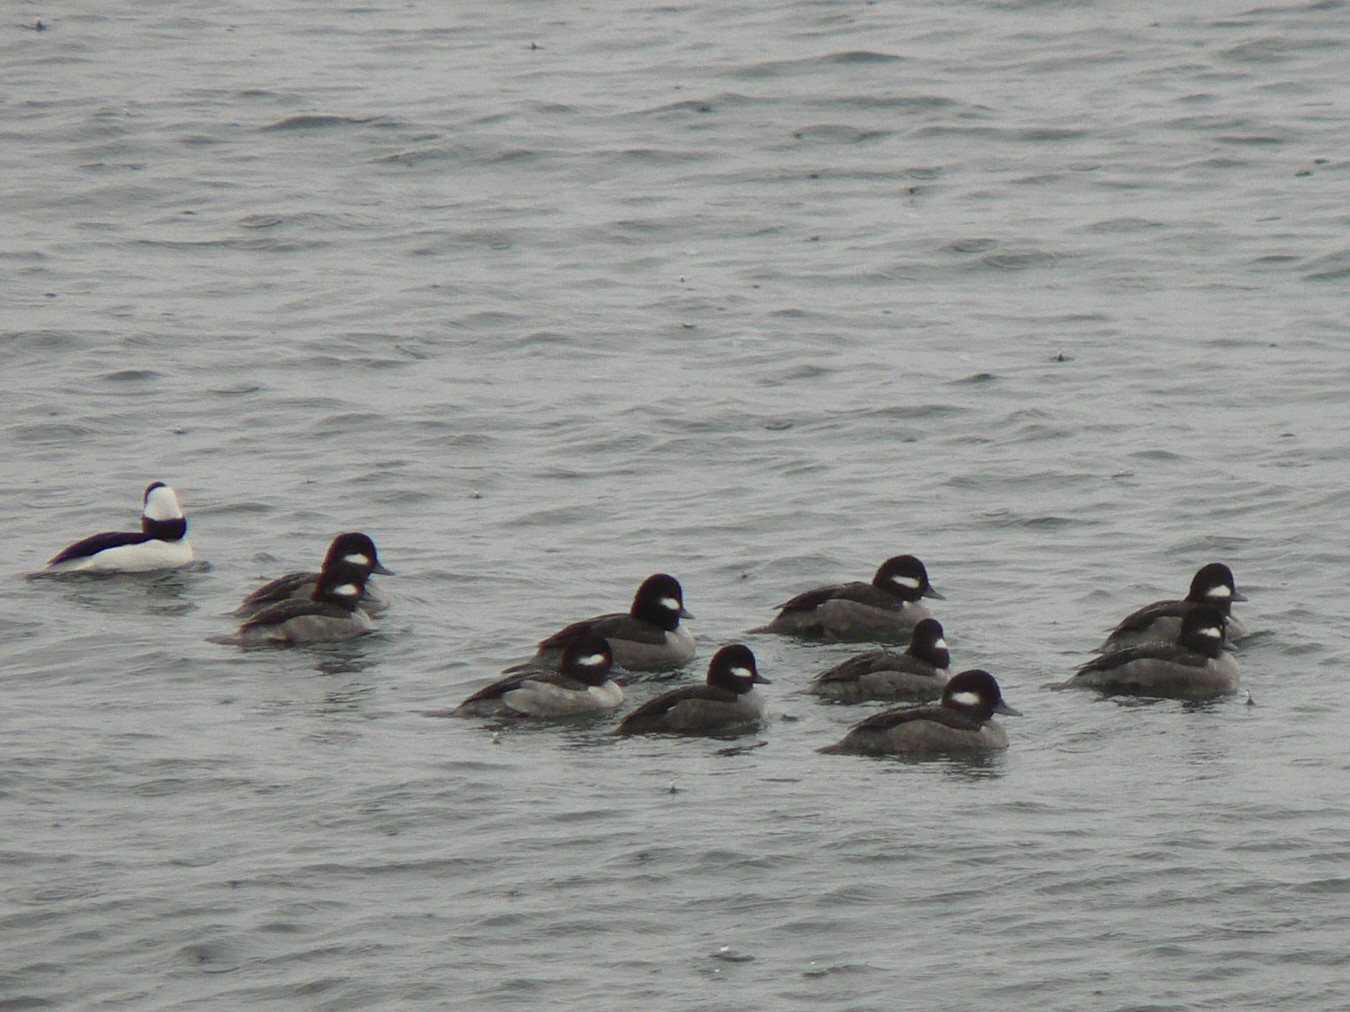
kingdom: Animalia
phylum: Chordata
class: Aves
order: Anseriformes
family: Anatidae
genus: Bucephala
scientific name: Bucephala albeola
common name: Bufflehead
